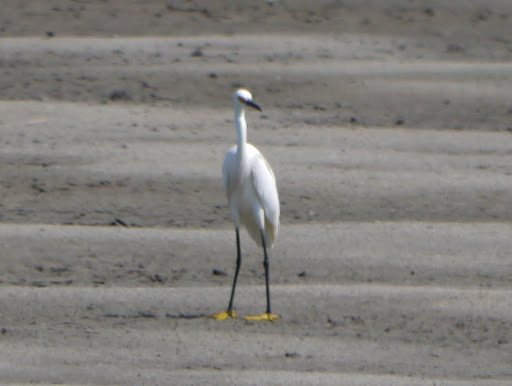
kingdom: Animalia
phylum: Chordata
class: Aves
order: Pelecaniformes
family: Ardeidae
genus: Egretta
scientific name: Egretta thula
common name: Snowy egret
